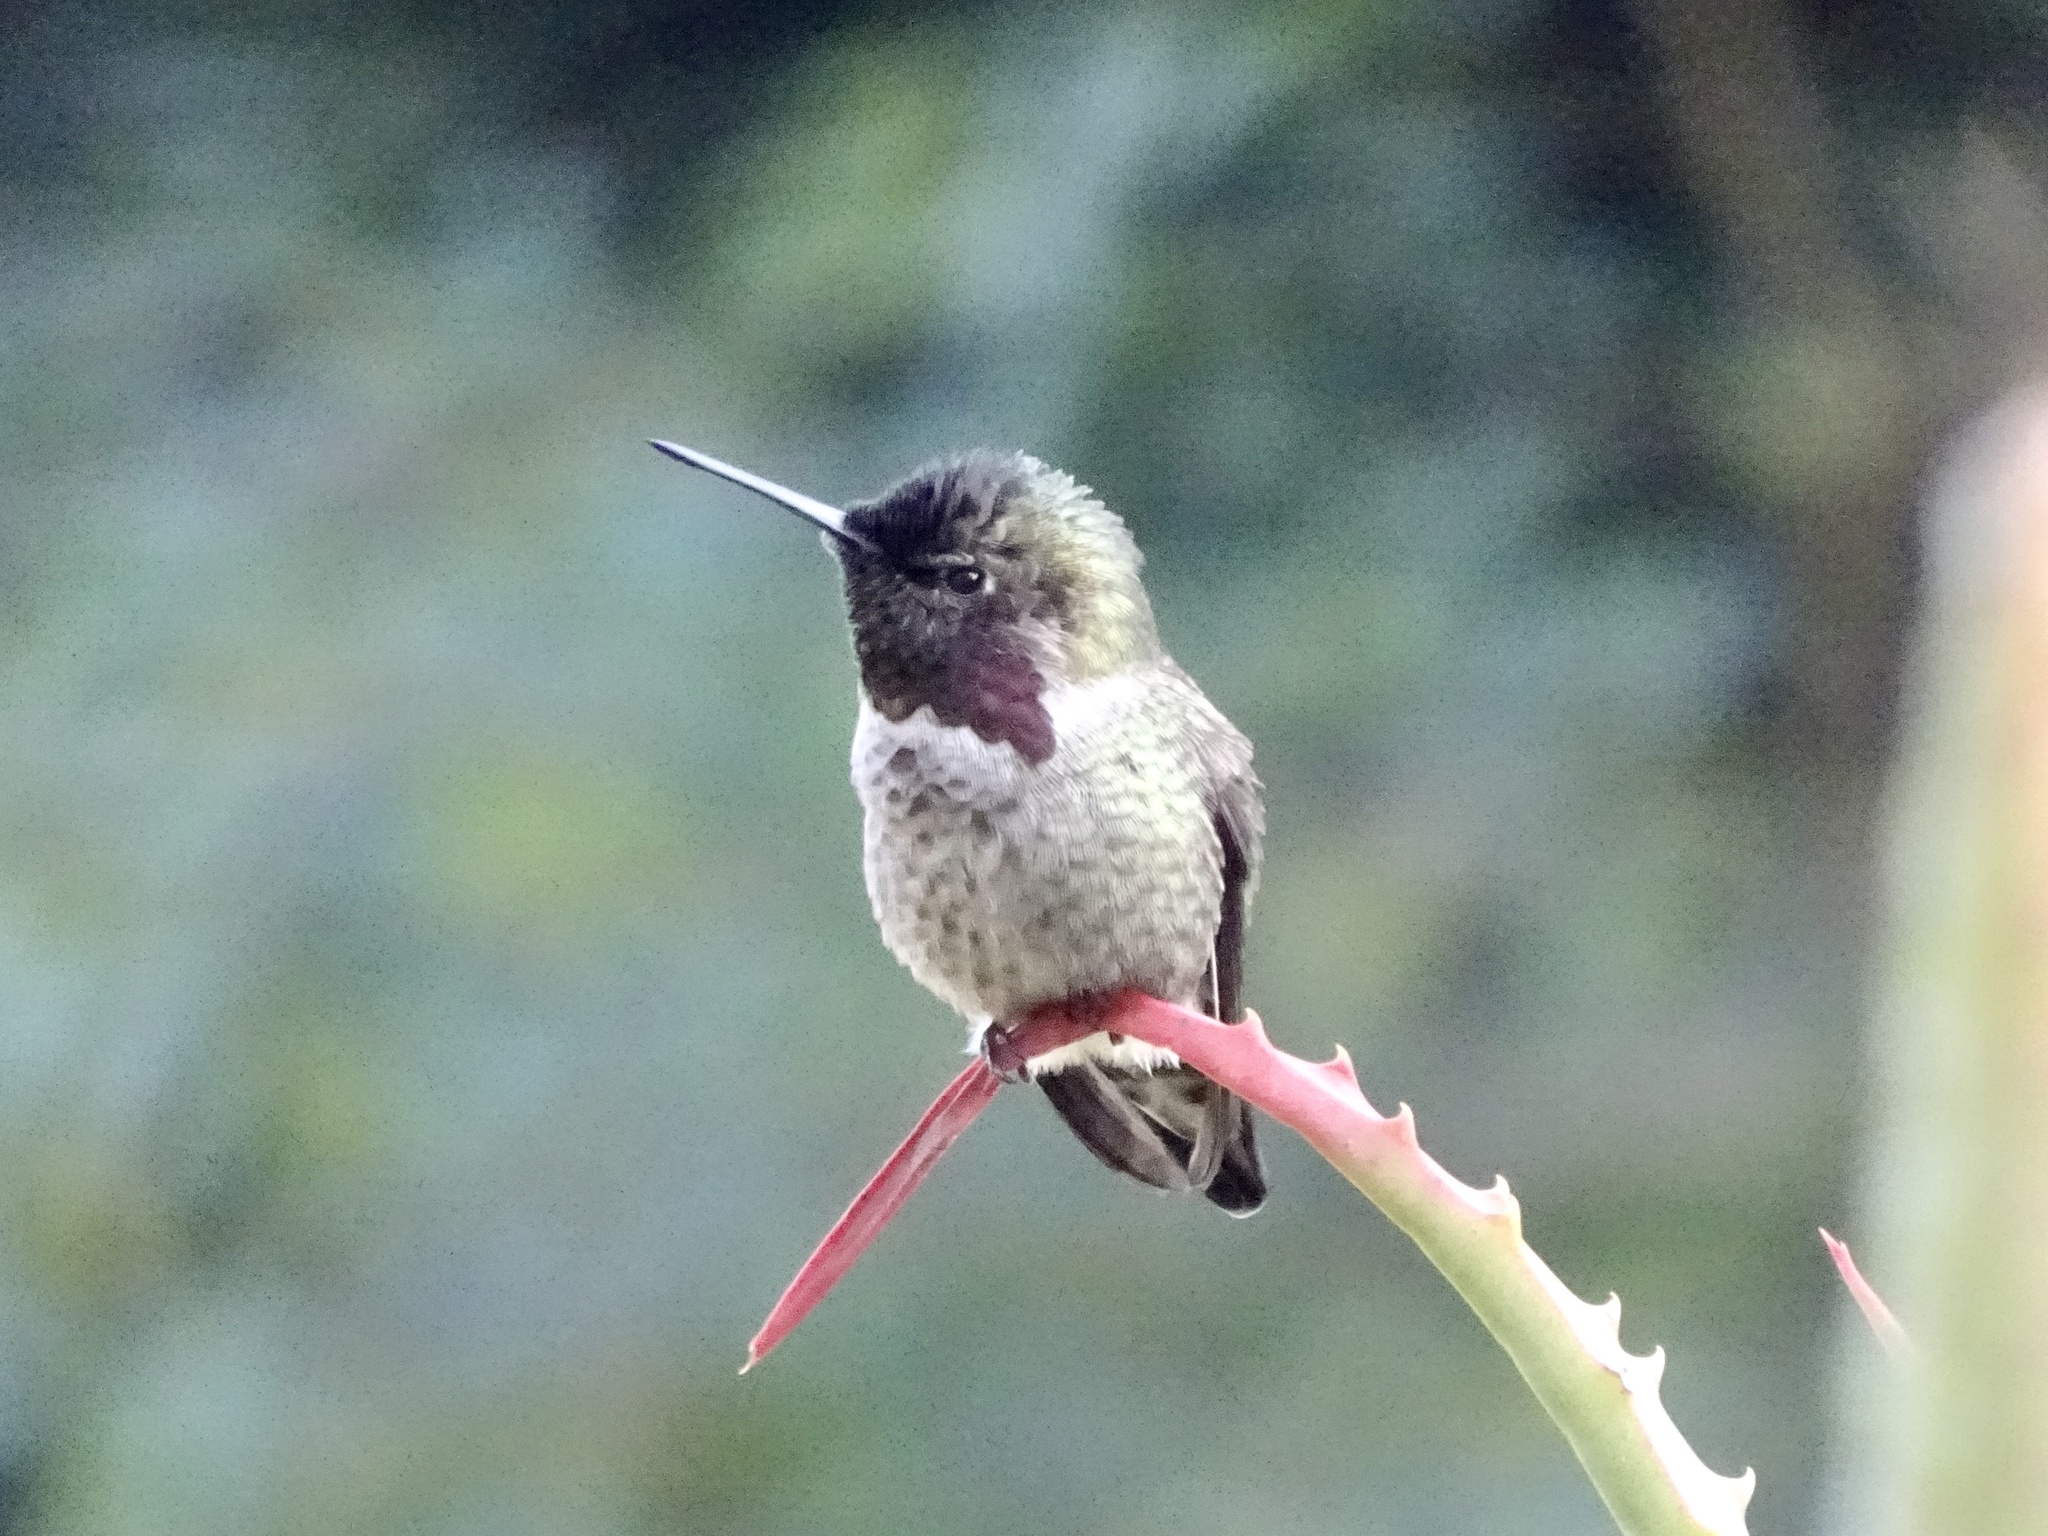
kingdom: Animalia
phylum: Chordata
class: Aves
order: Apodiformes
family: Trochilidae
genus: Calypte
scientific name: Calypte anna
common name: Anna's hummingbird
